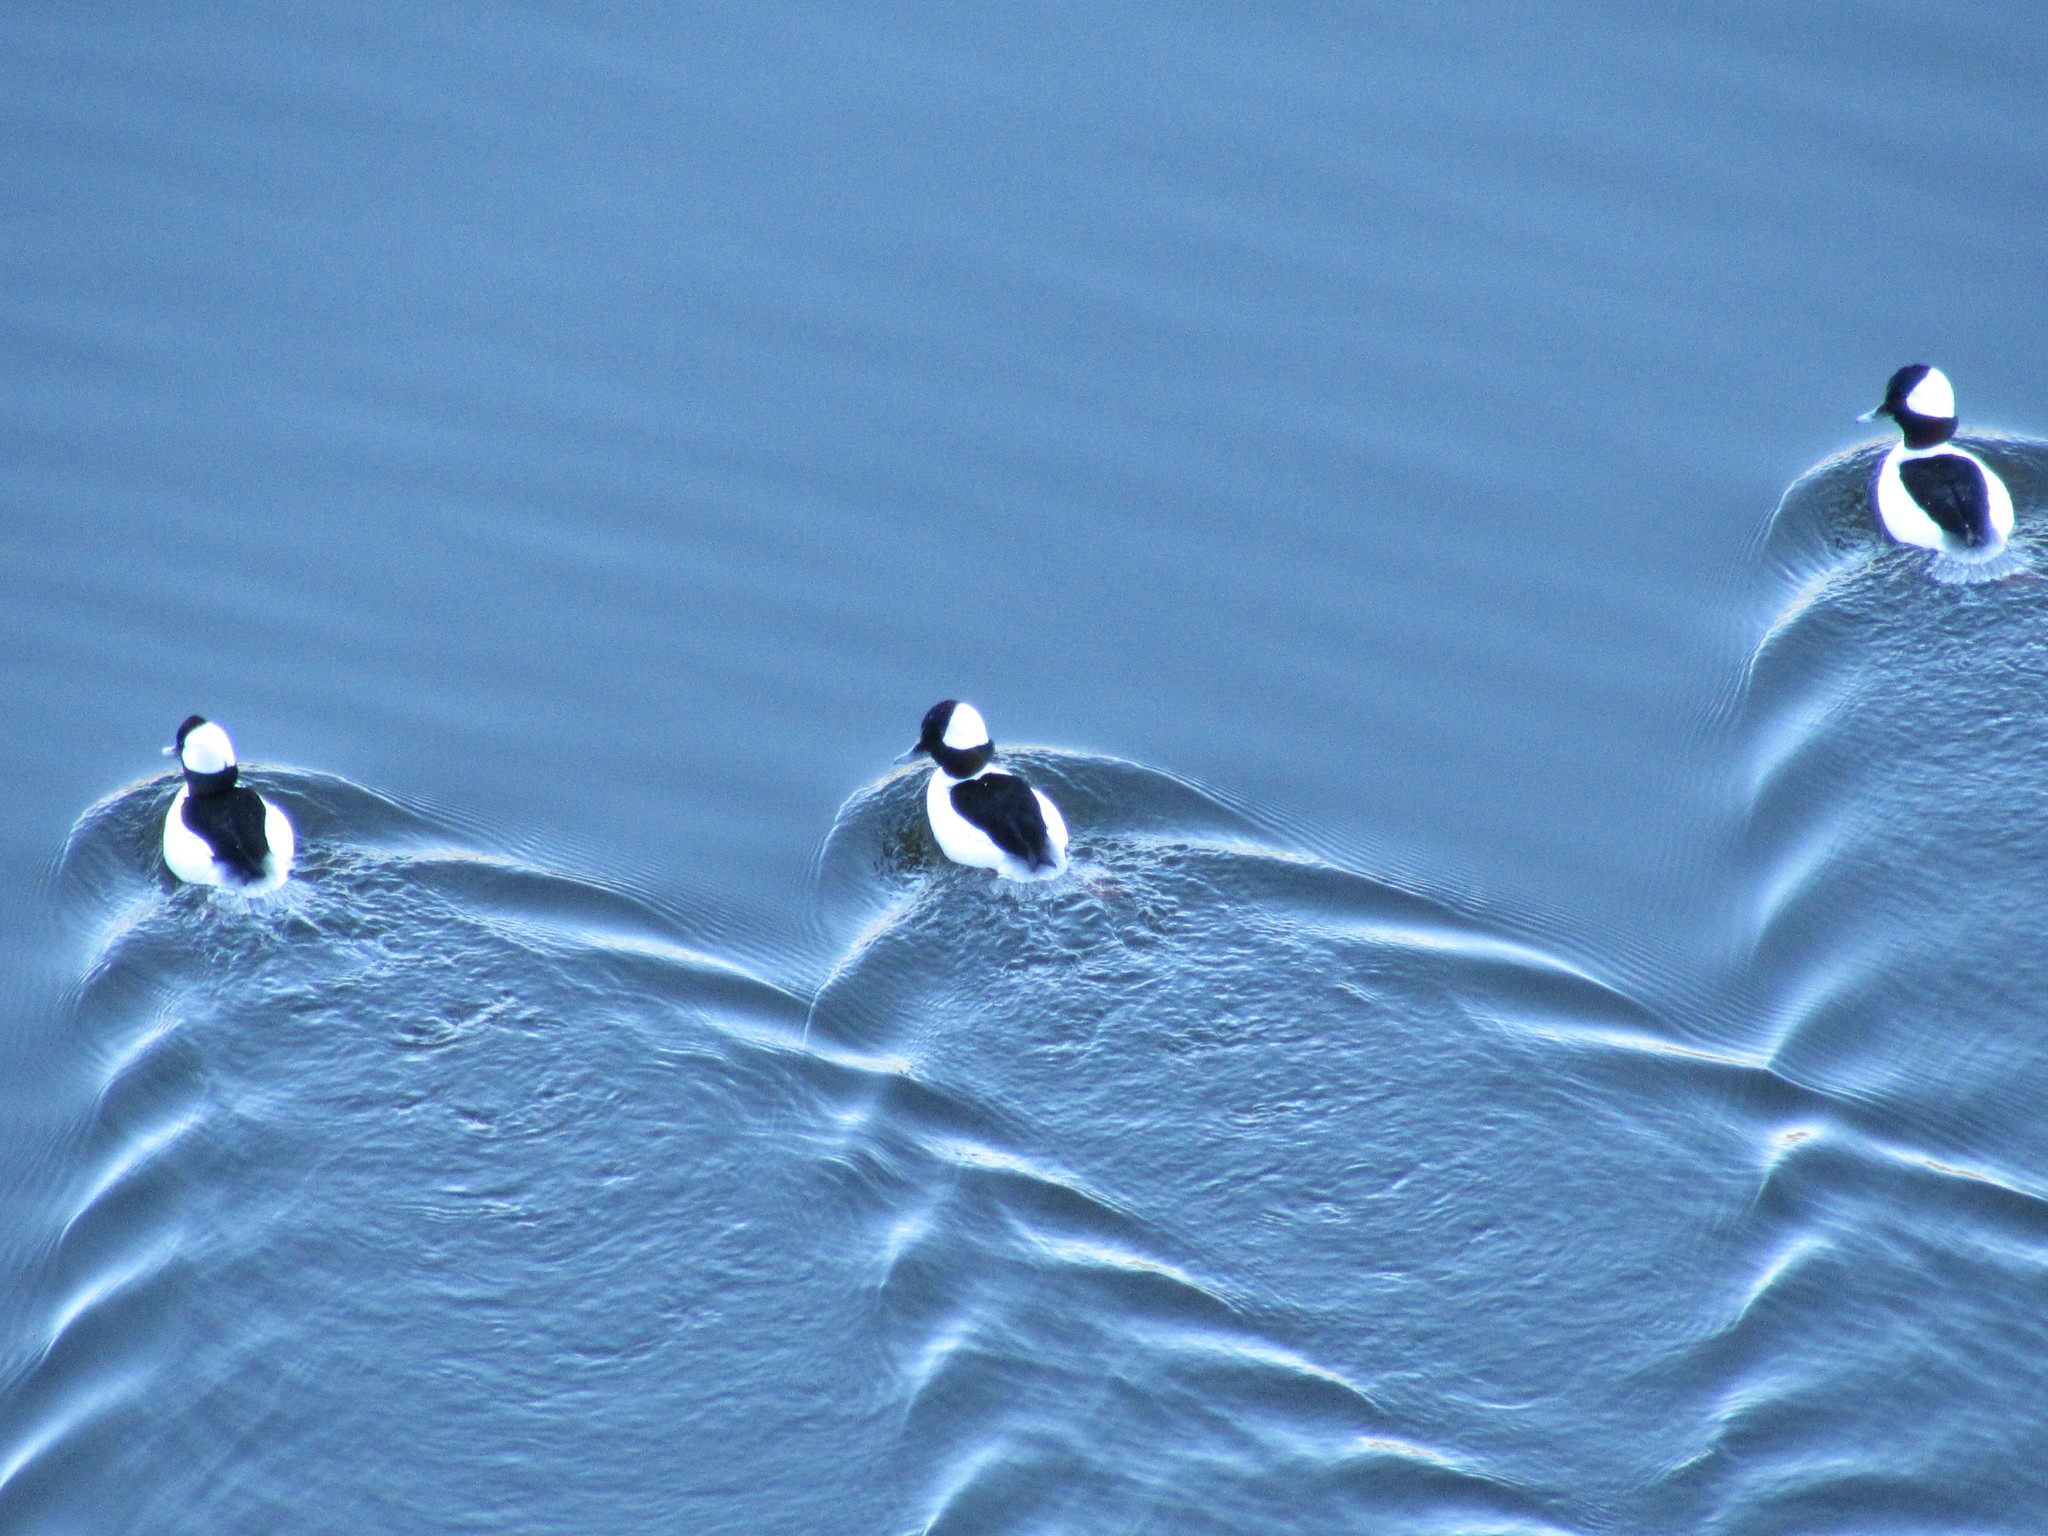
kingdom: Animalia
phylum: Chordata
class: Aves
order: Anseriformes
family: Anatidae
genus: Bucephala
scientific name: Bucephala albeola
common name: Bufflehead
